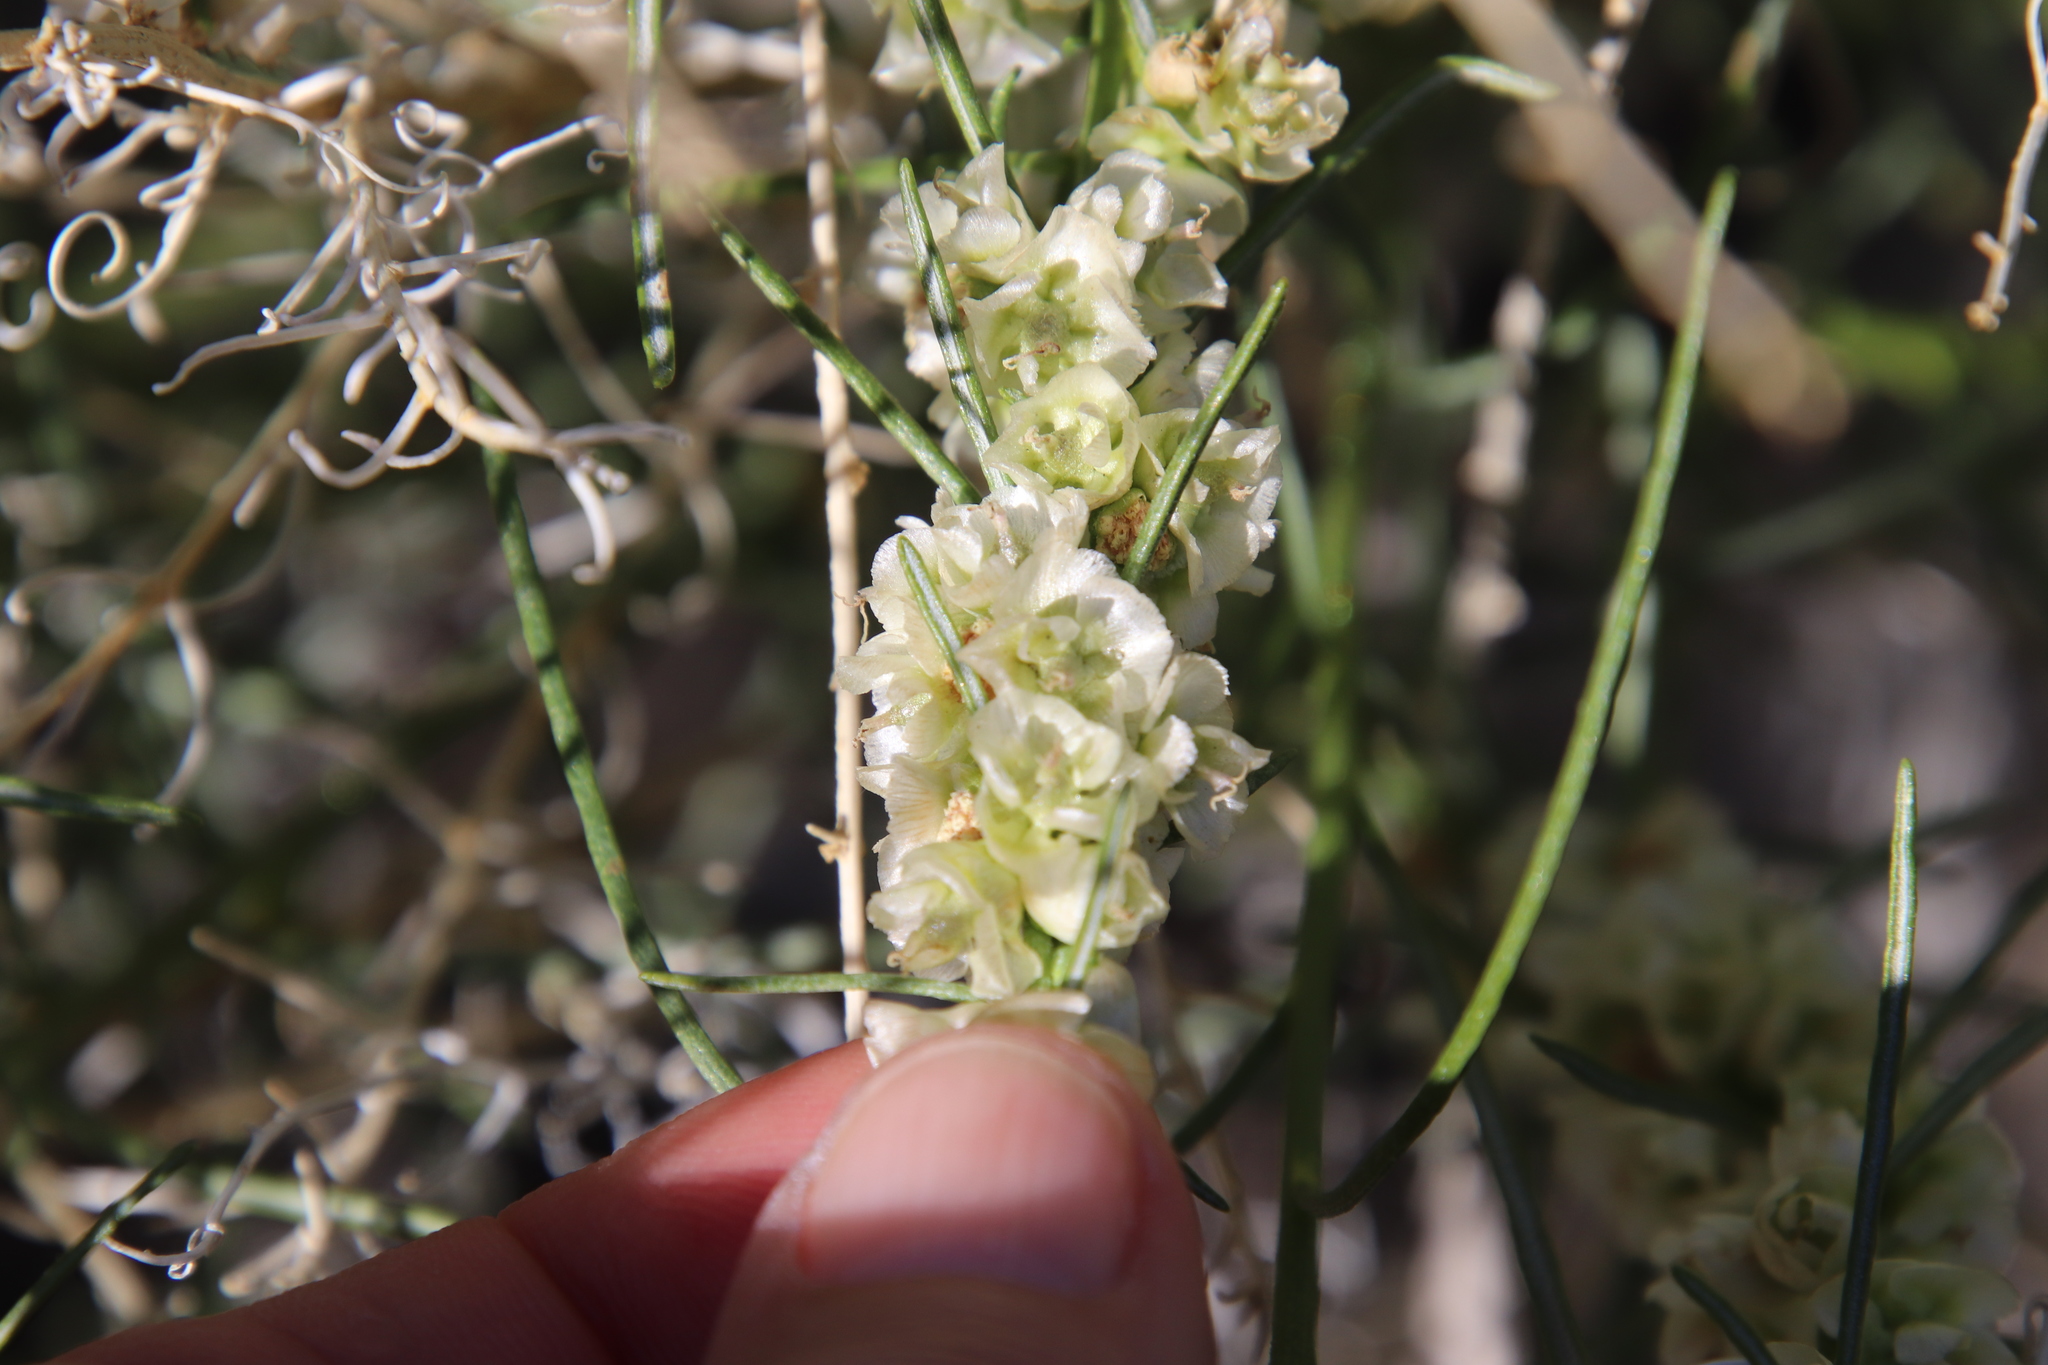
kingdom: Plantae
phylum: Tracheophyta
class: Magnoliopsida
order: Asterales
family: Asteraceae
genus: Ambrosia
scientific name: Ambrosia salsola
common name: Burrobrush
